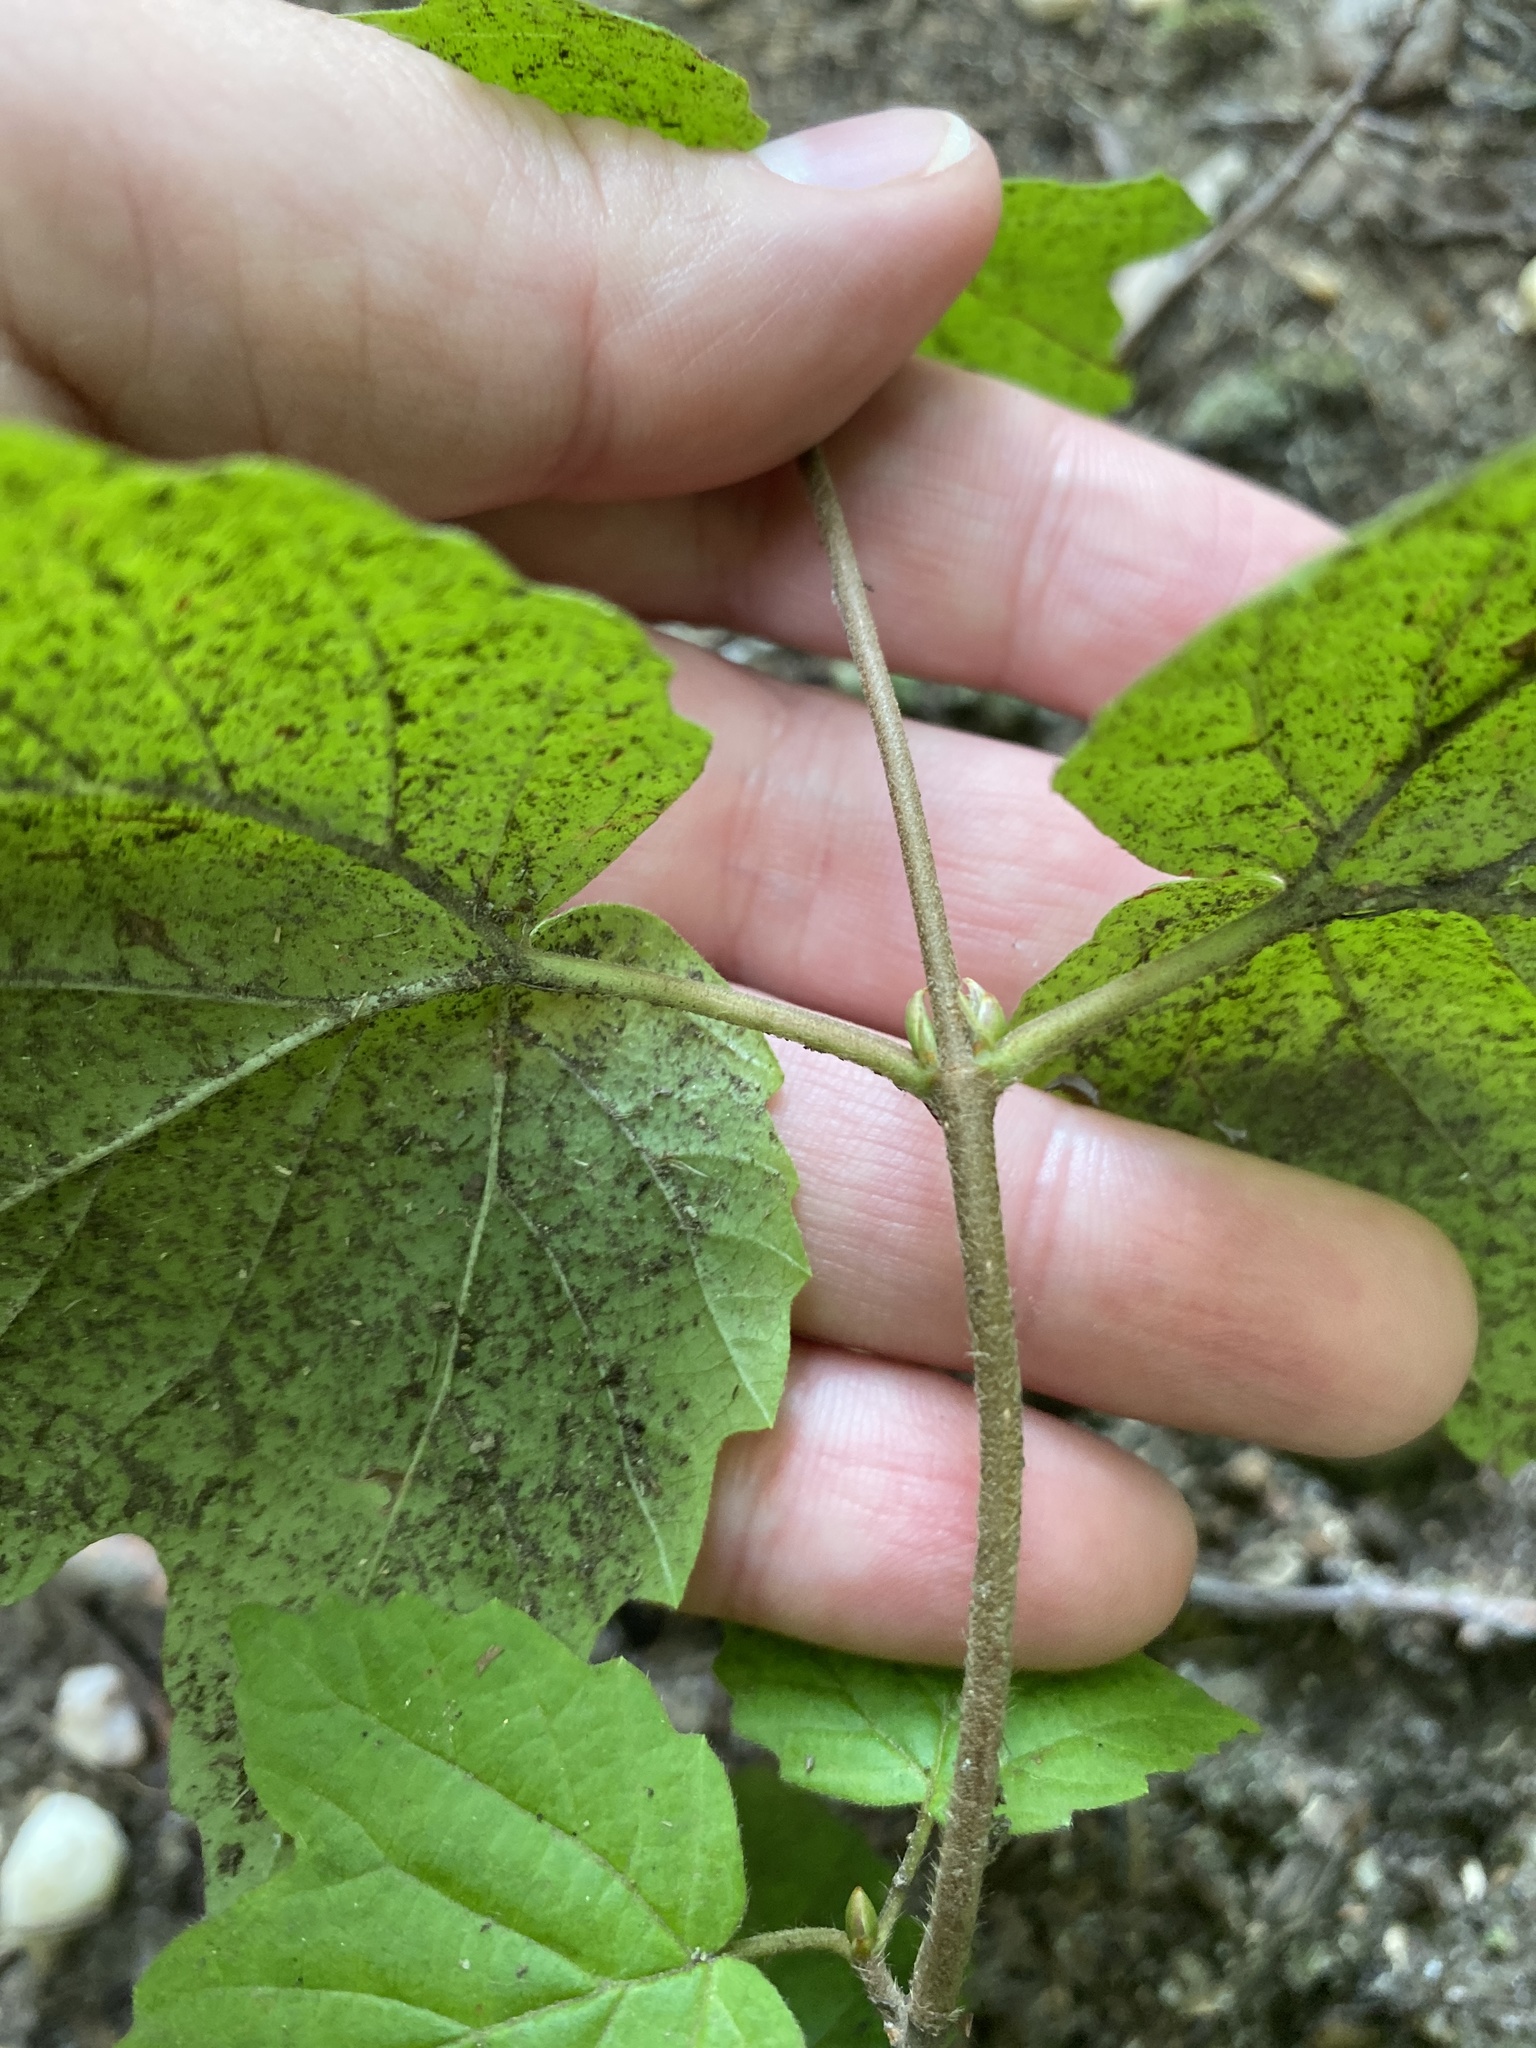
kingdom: Plantae
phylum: Tracheophyta
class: Magnoliopsida
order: Dipsacales
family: Viburnaceae
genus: Viburnum
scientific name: Viburnum acerifolium
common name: Dockmackie
